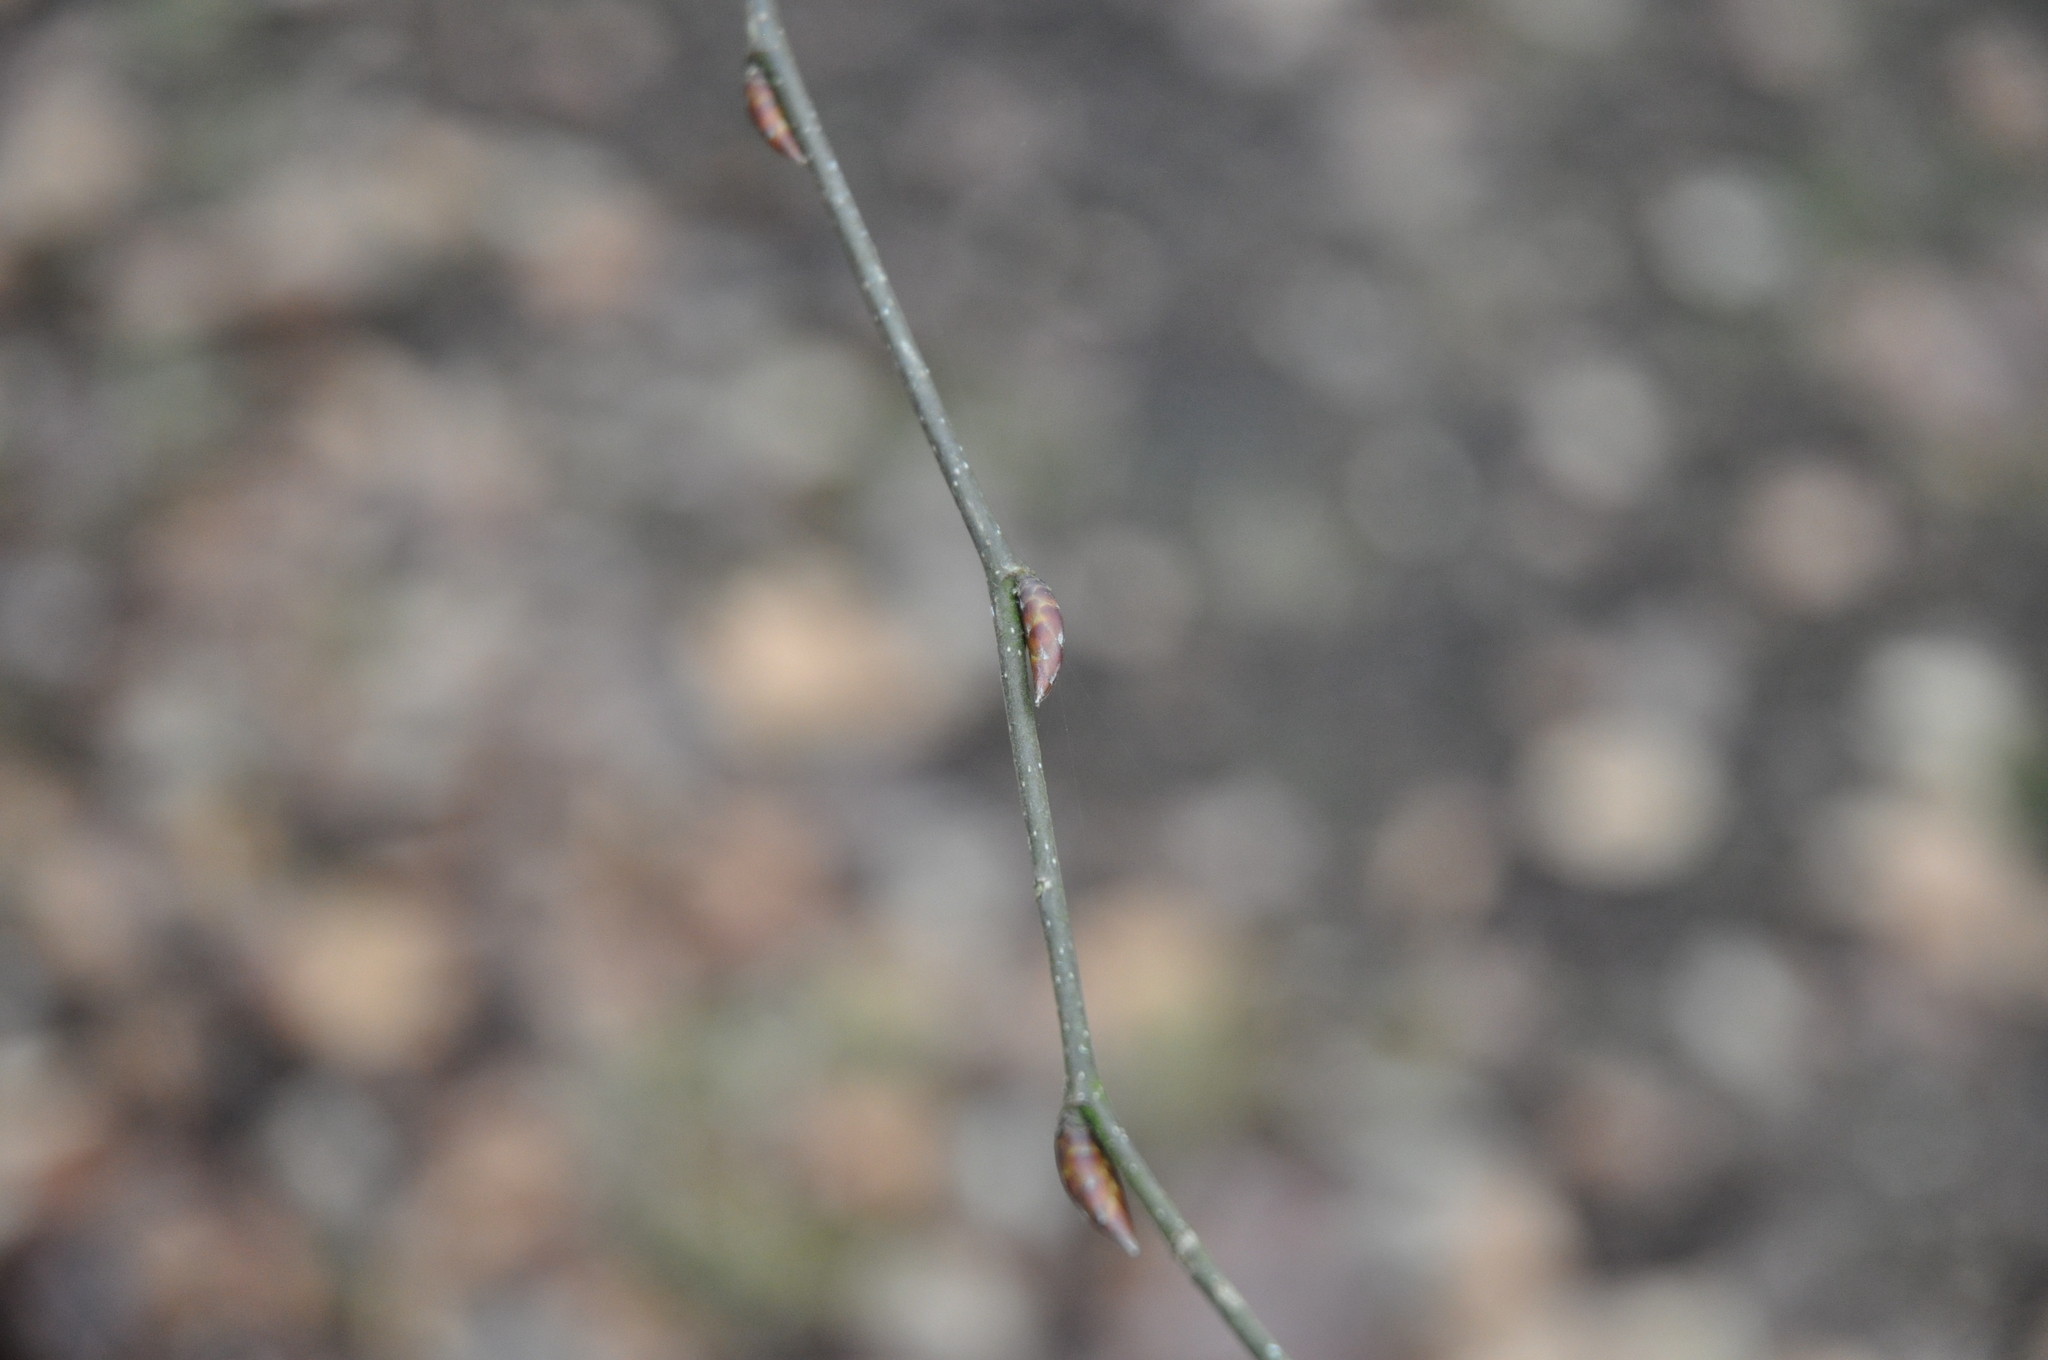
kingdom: Plantae
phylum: Tracheophyta
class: Magnoliopsida
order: Fagales
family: Betulaceae
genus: Carpinus
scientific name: Carpinus betulus
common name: Hornbeam
